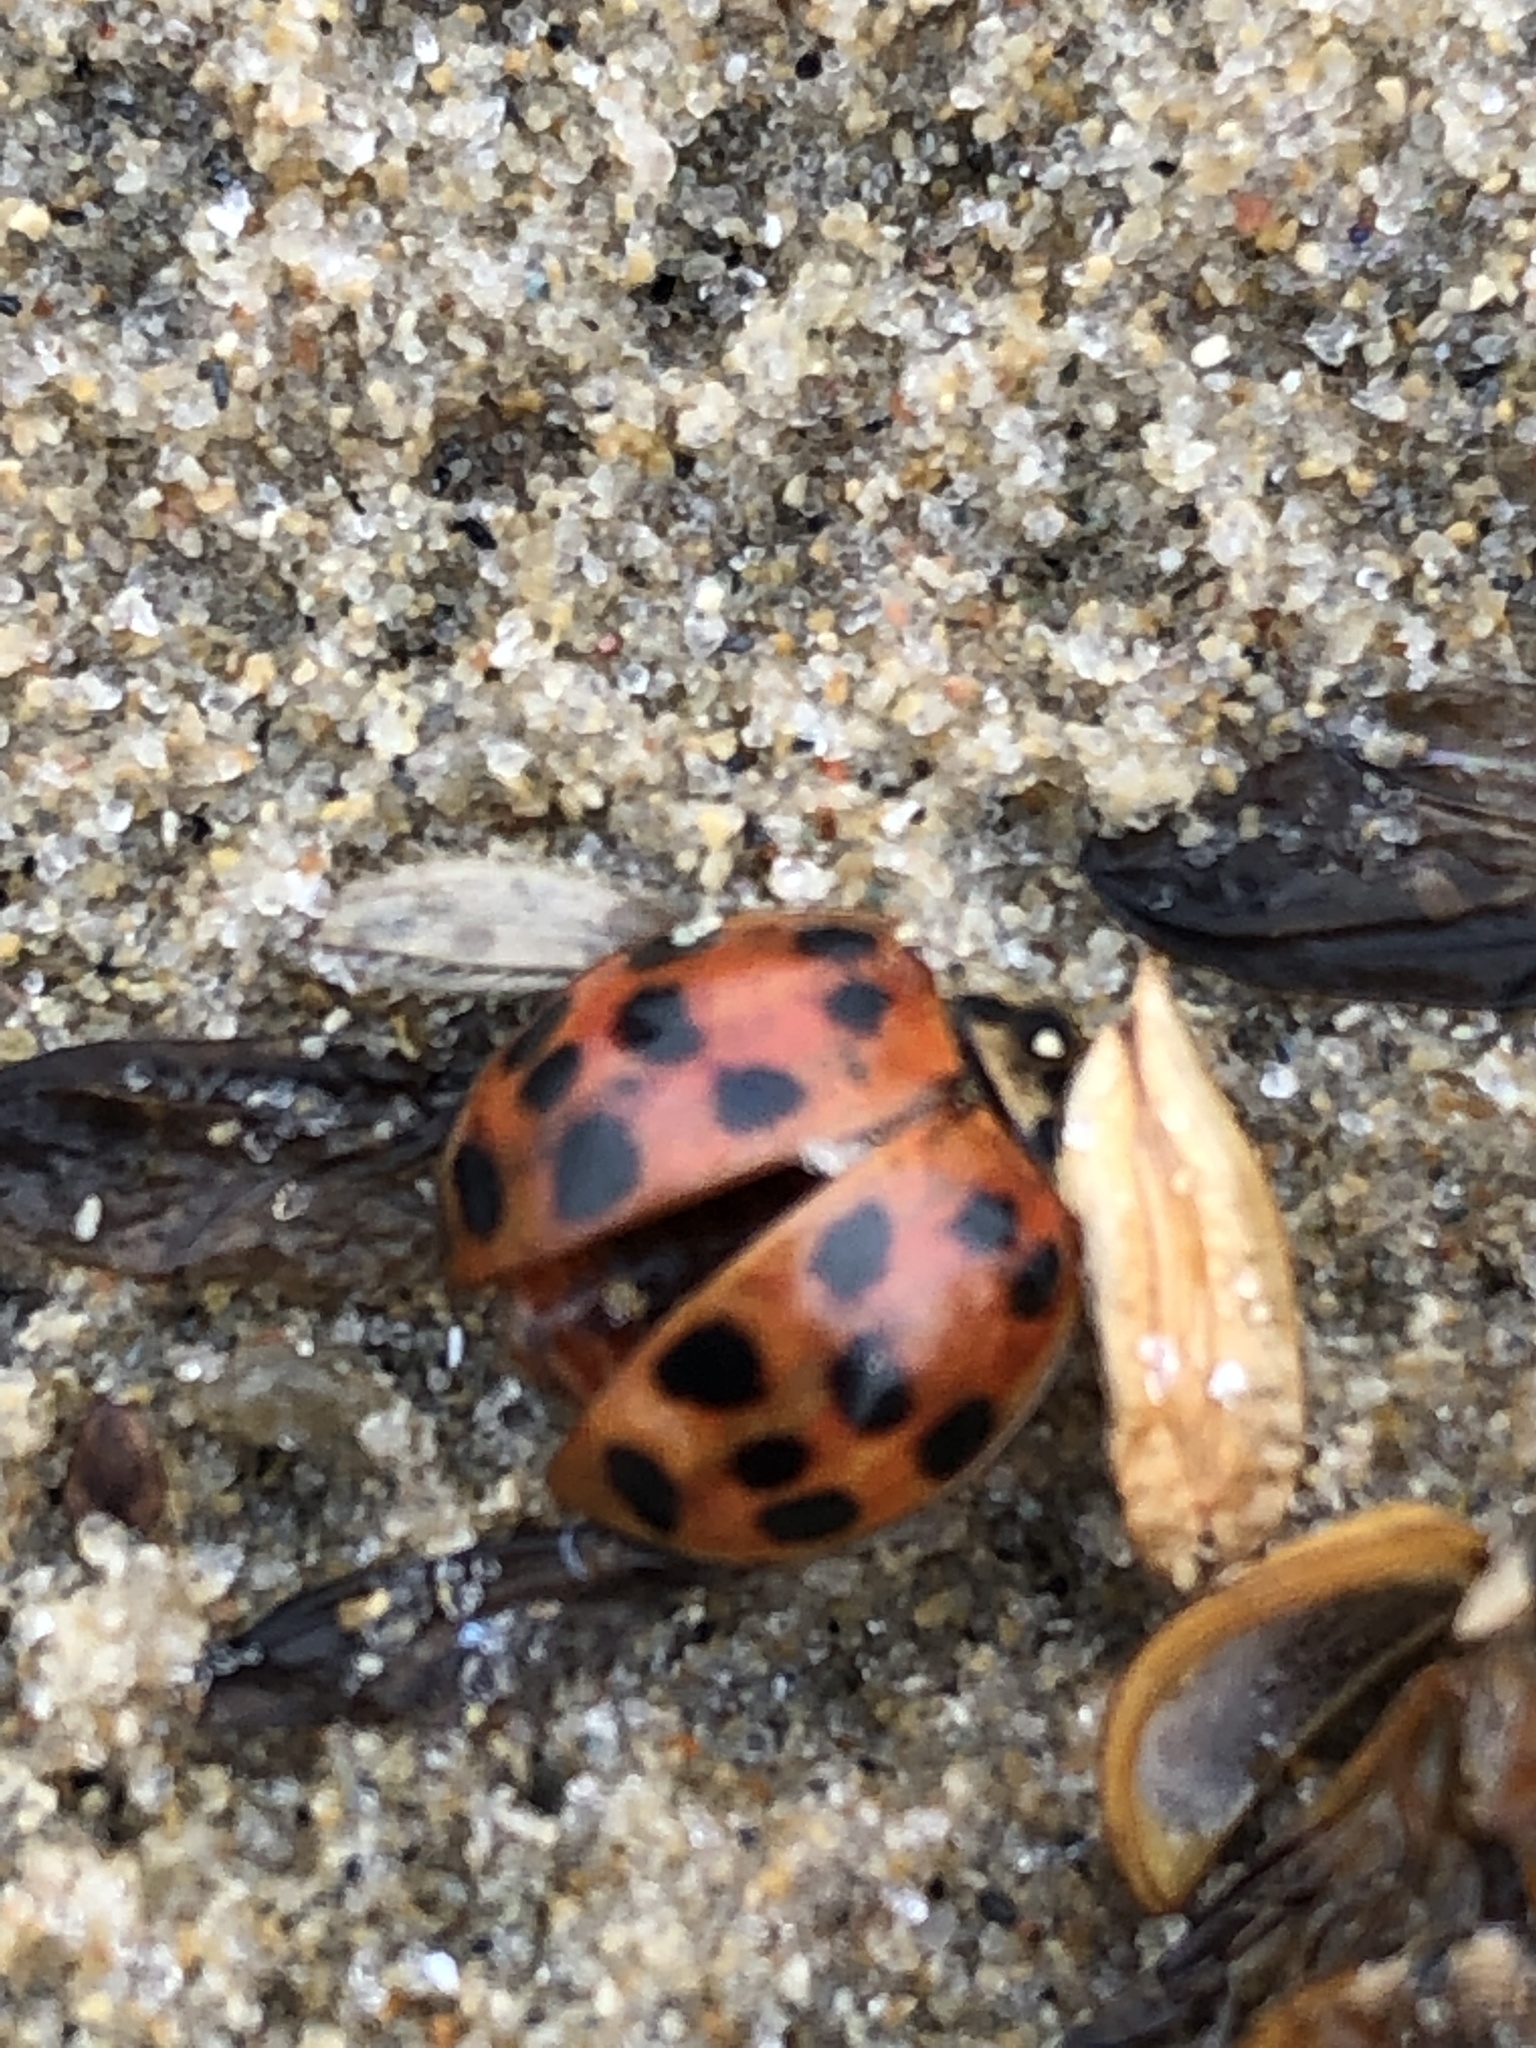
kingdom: Animalia
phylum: Arthropoda
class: Insecta
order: Coleoptera
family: Coccinellidae
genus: Harmonia
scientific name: Harmonia axyridis
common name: Harlequin ladybird
